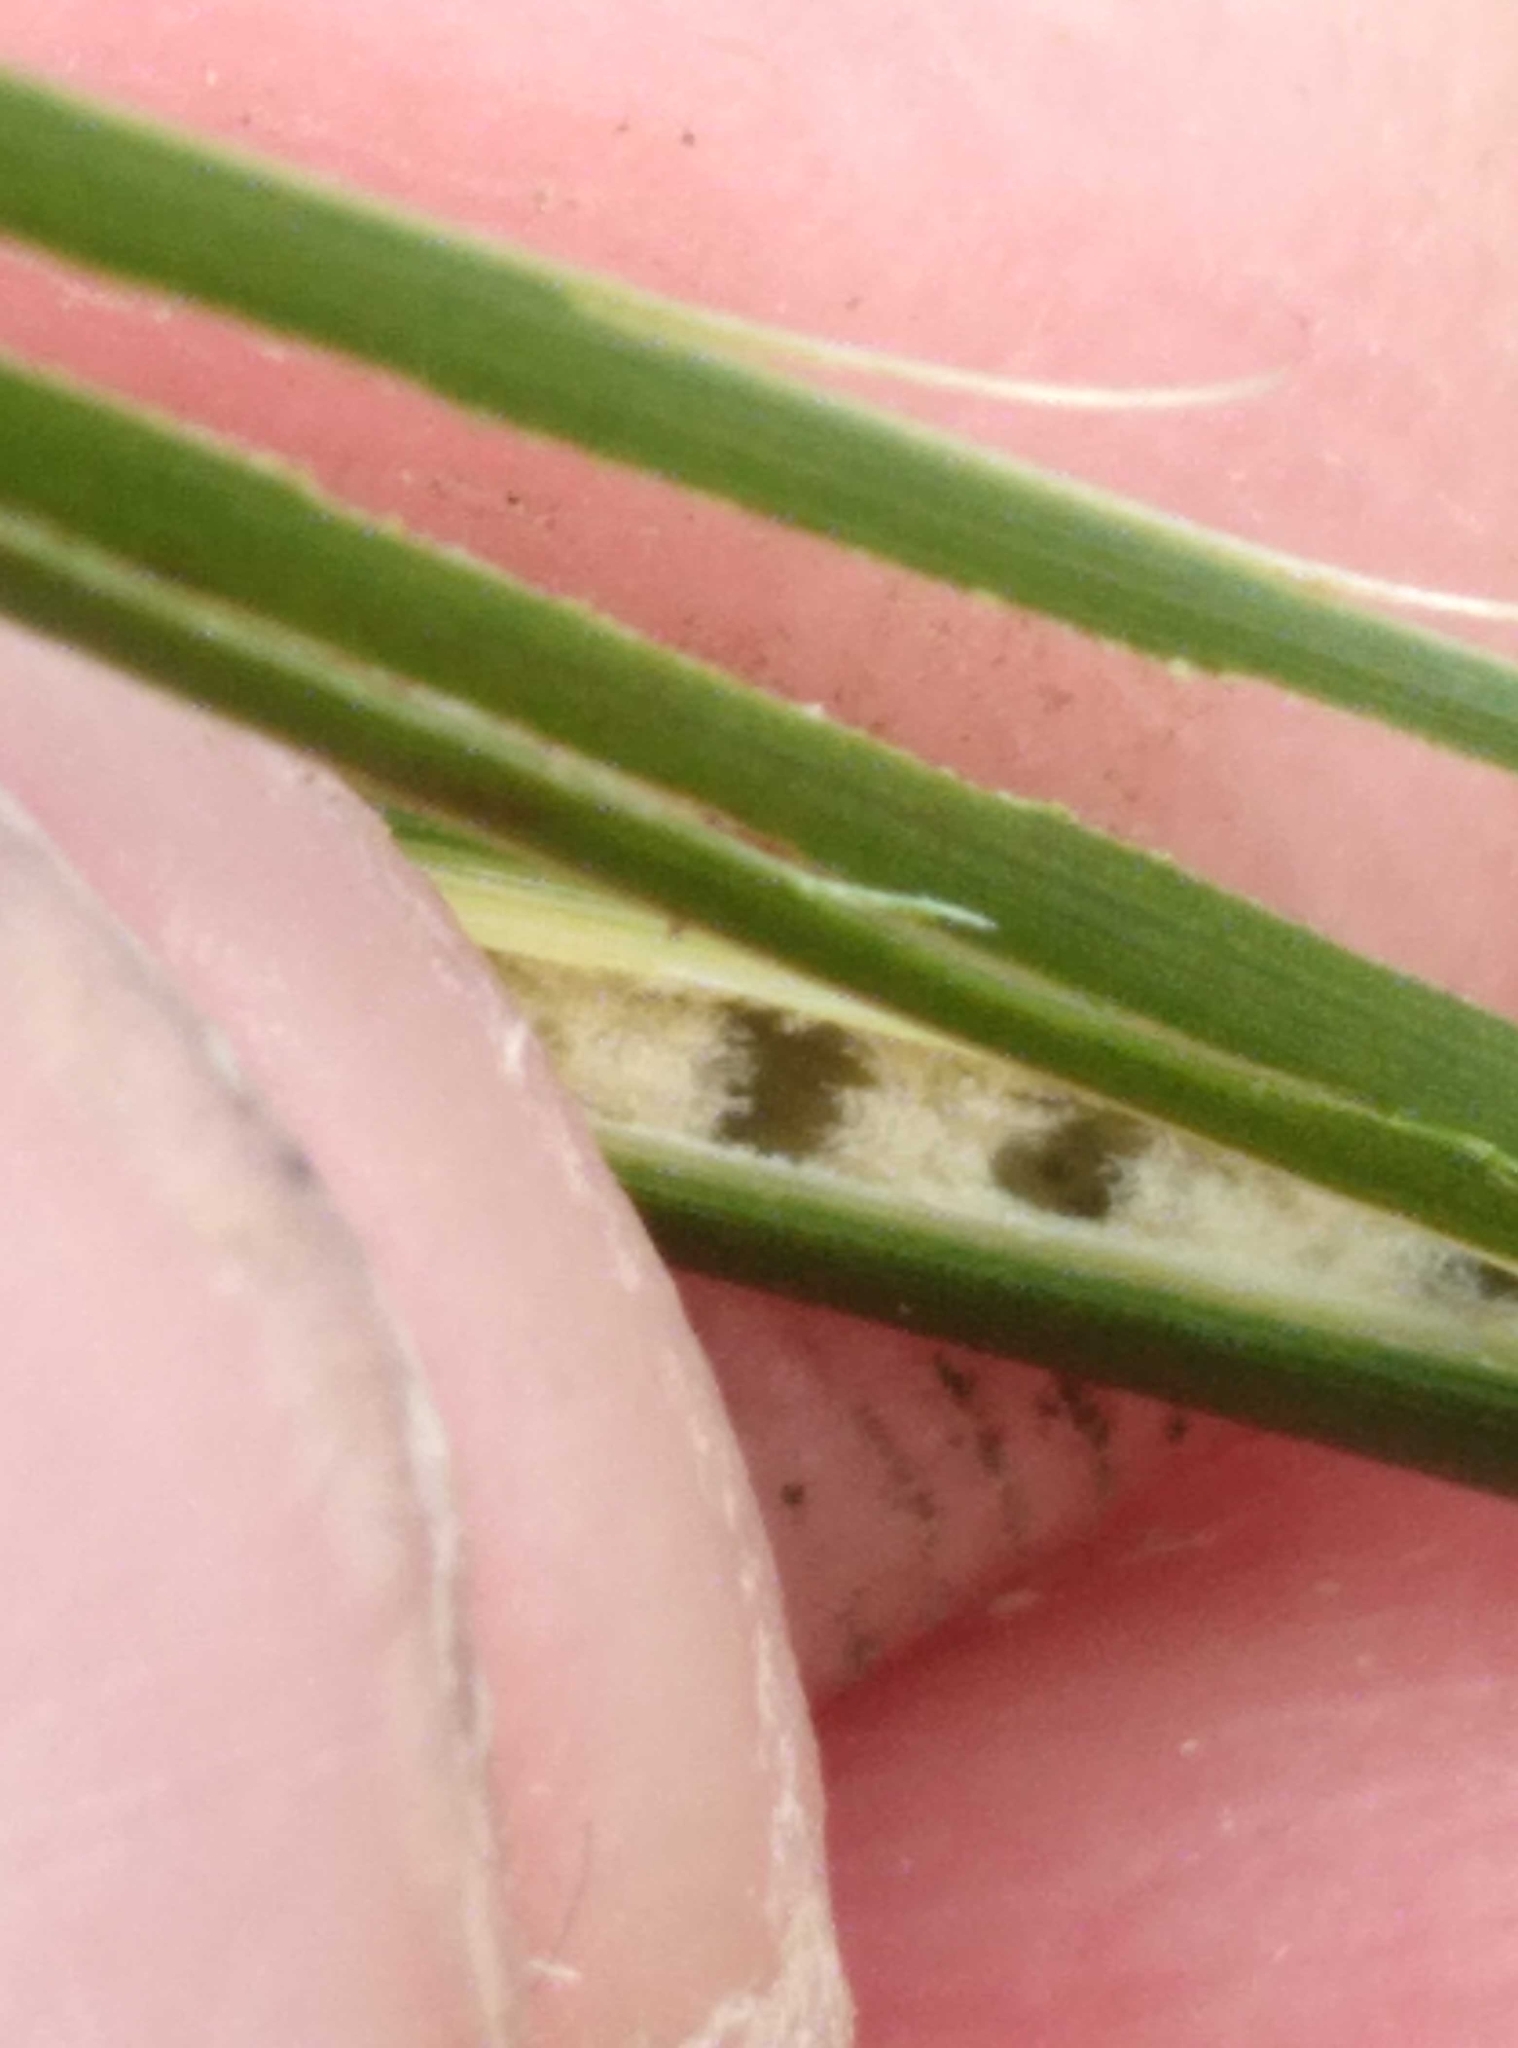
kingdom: Plantae
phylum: Tracheophyta
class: Liliopsida
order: Poales
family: Juncaceae
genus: Juncus
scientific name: Juncus edgariae
